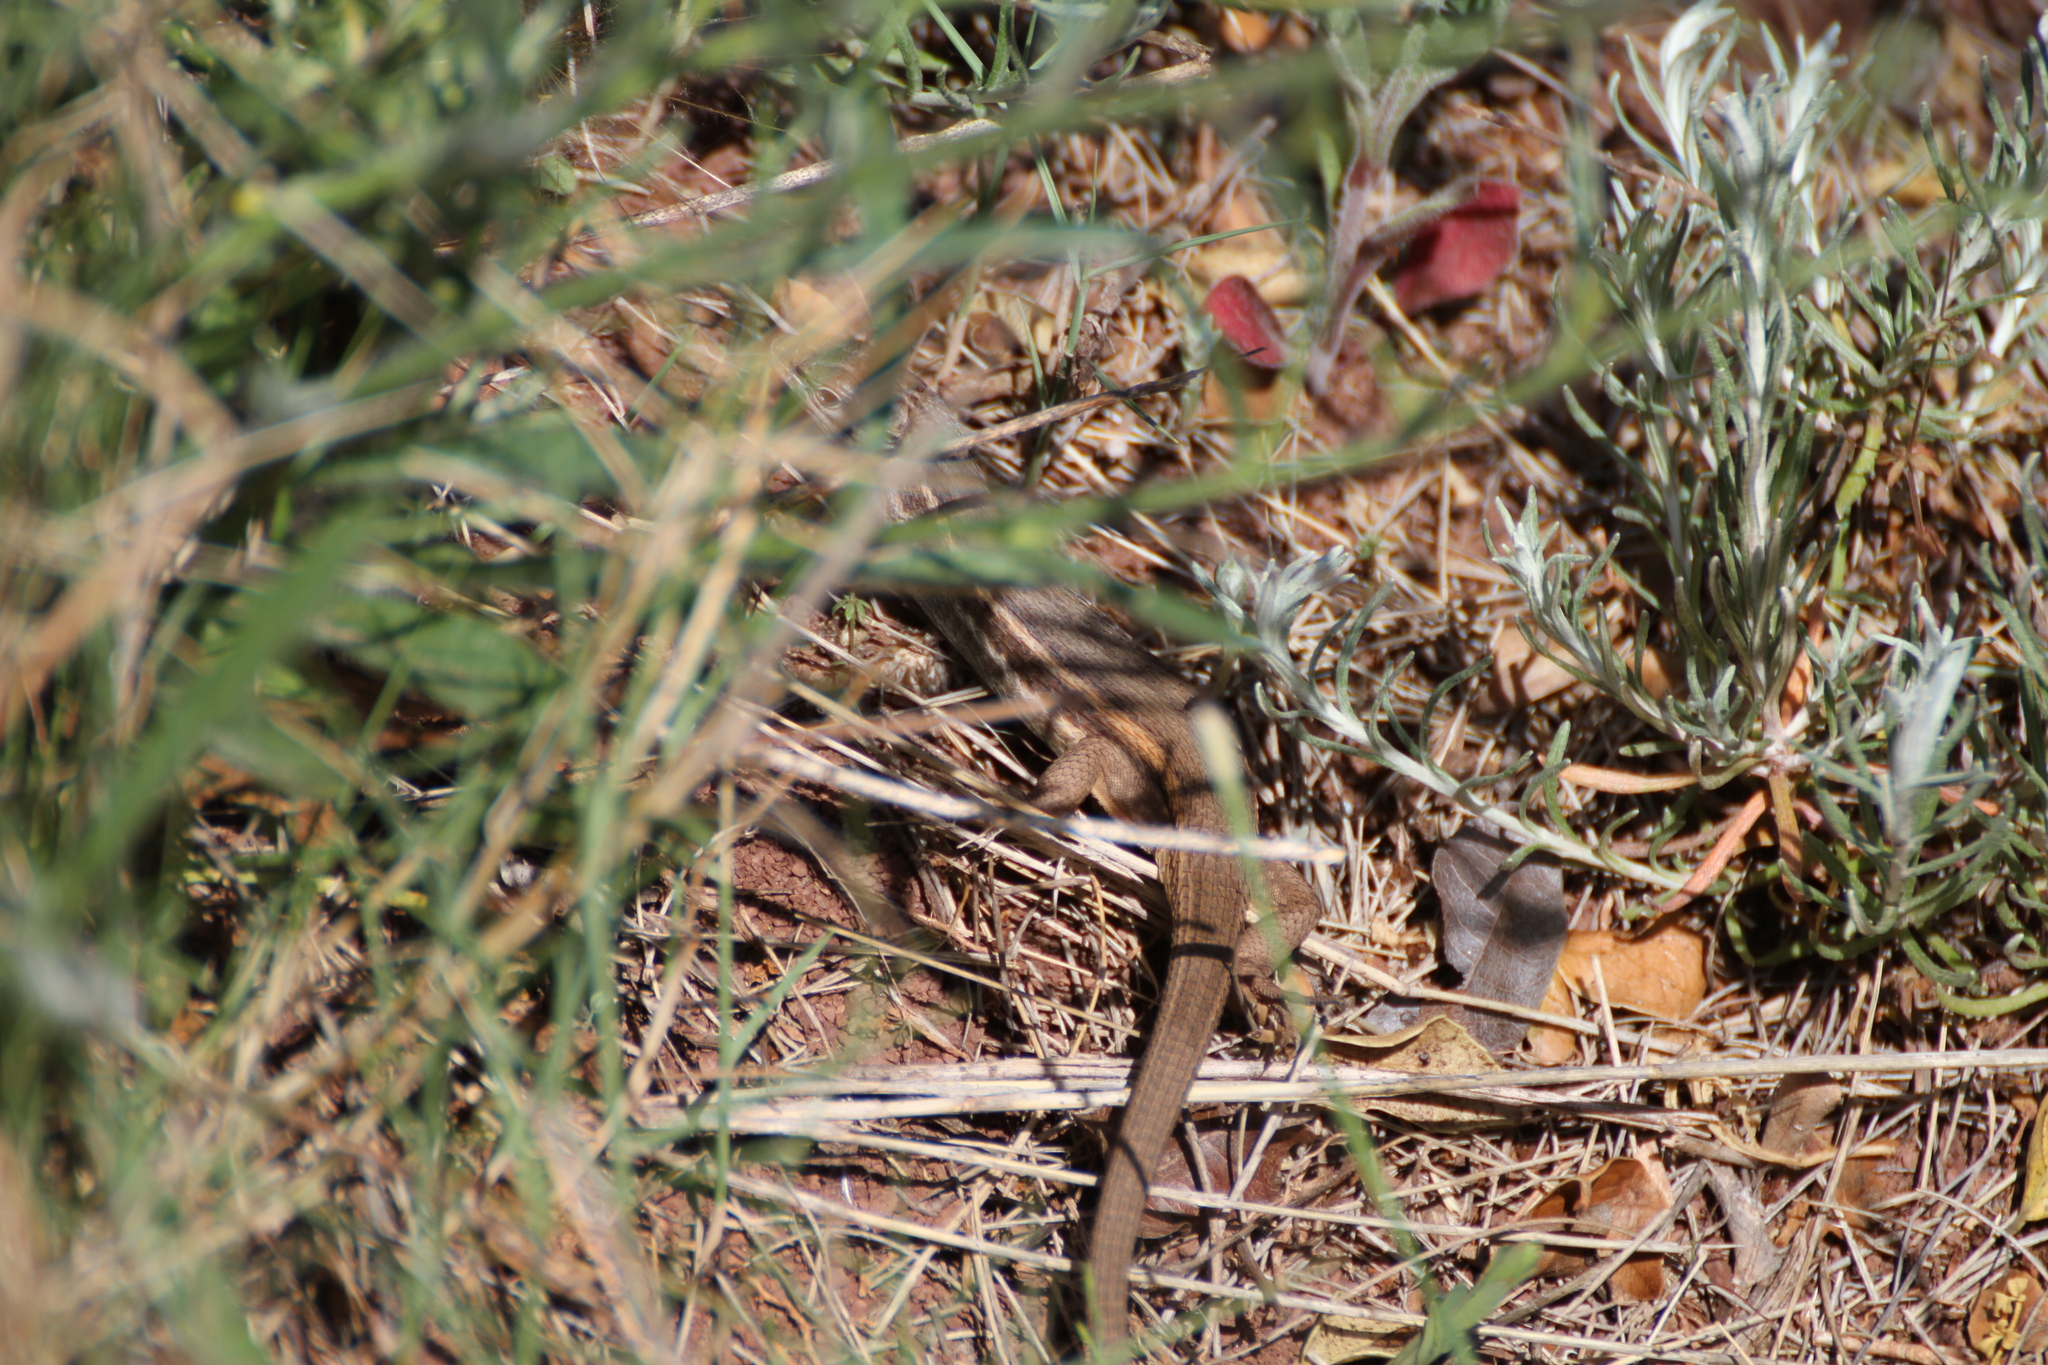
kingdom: Animalia
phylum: Chordata
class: Squamata
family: Lacertidae
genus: Psammodromus
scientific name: Psammodromus algirus
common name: Algerian psammodromus
